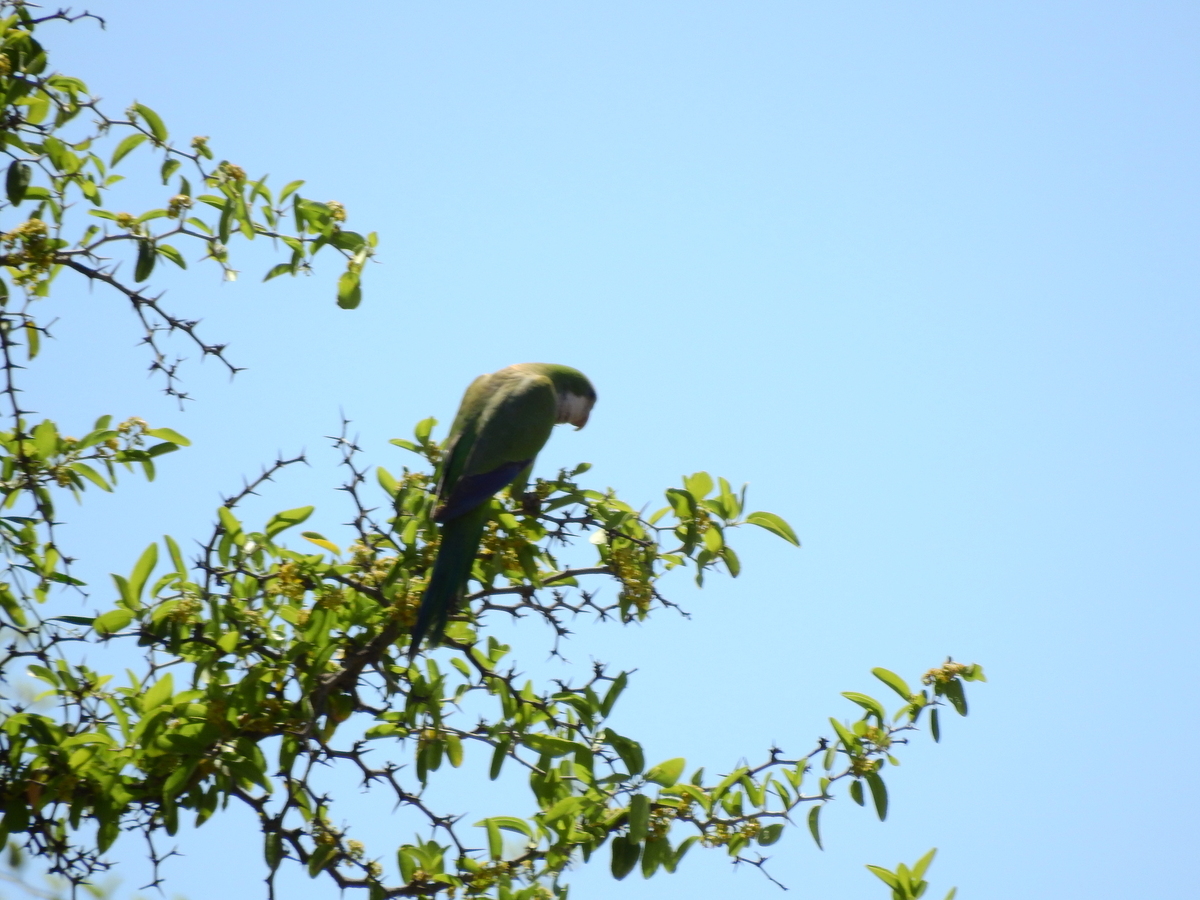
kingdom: Animalia
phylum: Chordata
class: Aves
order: Psittaciformes
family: Psittacidae
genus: Myiopsitta
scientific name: Myiopsitta monachus
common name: Monk parakeet
